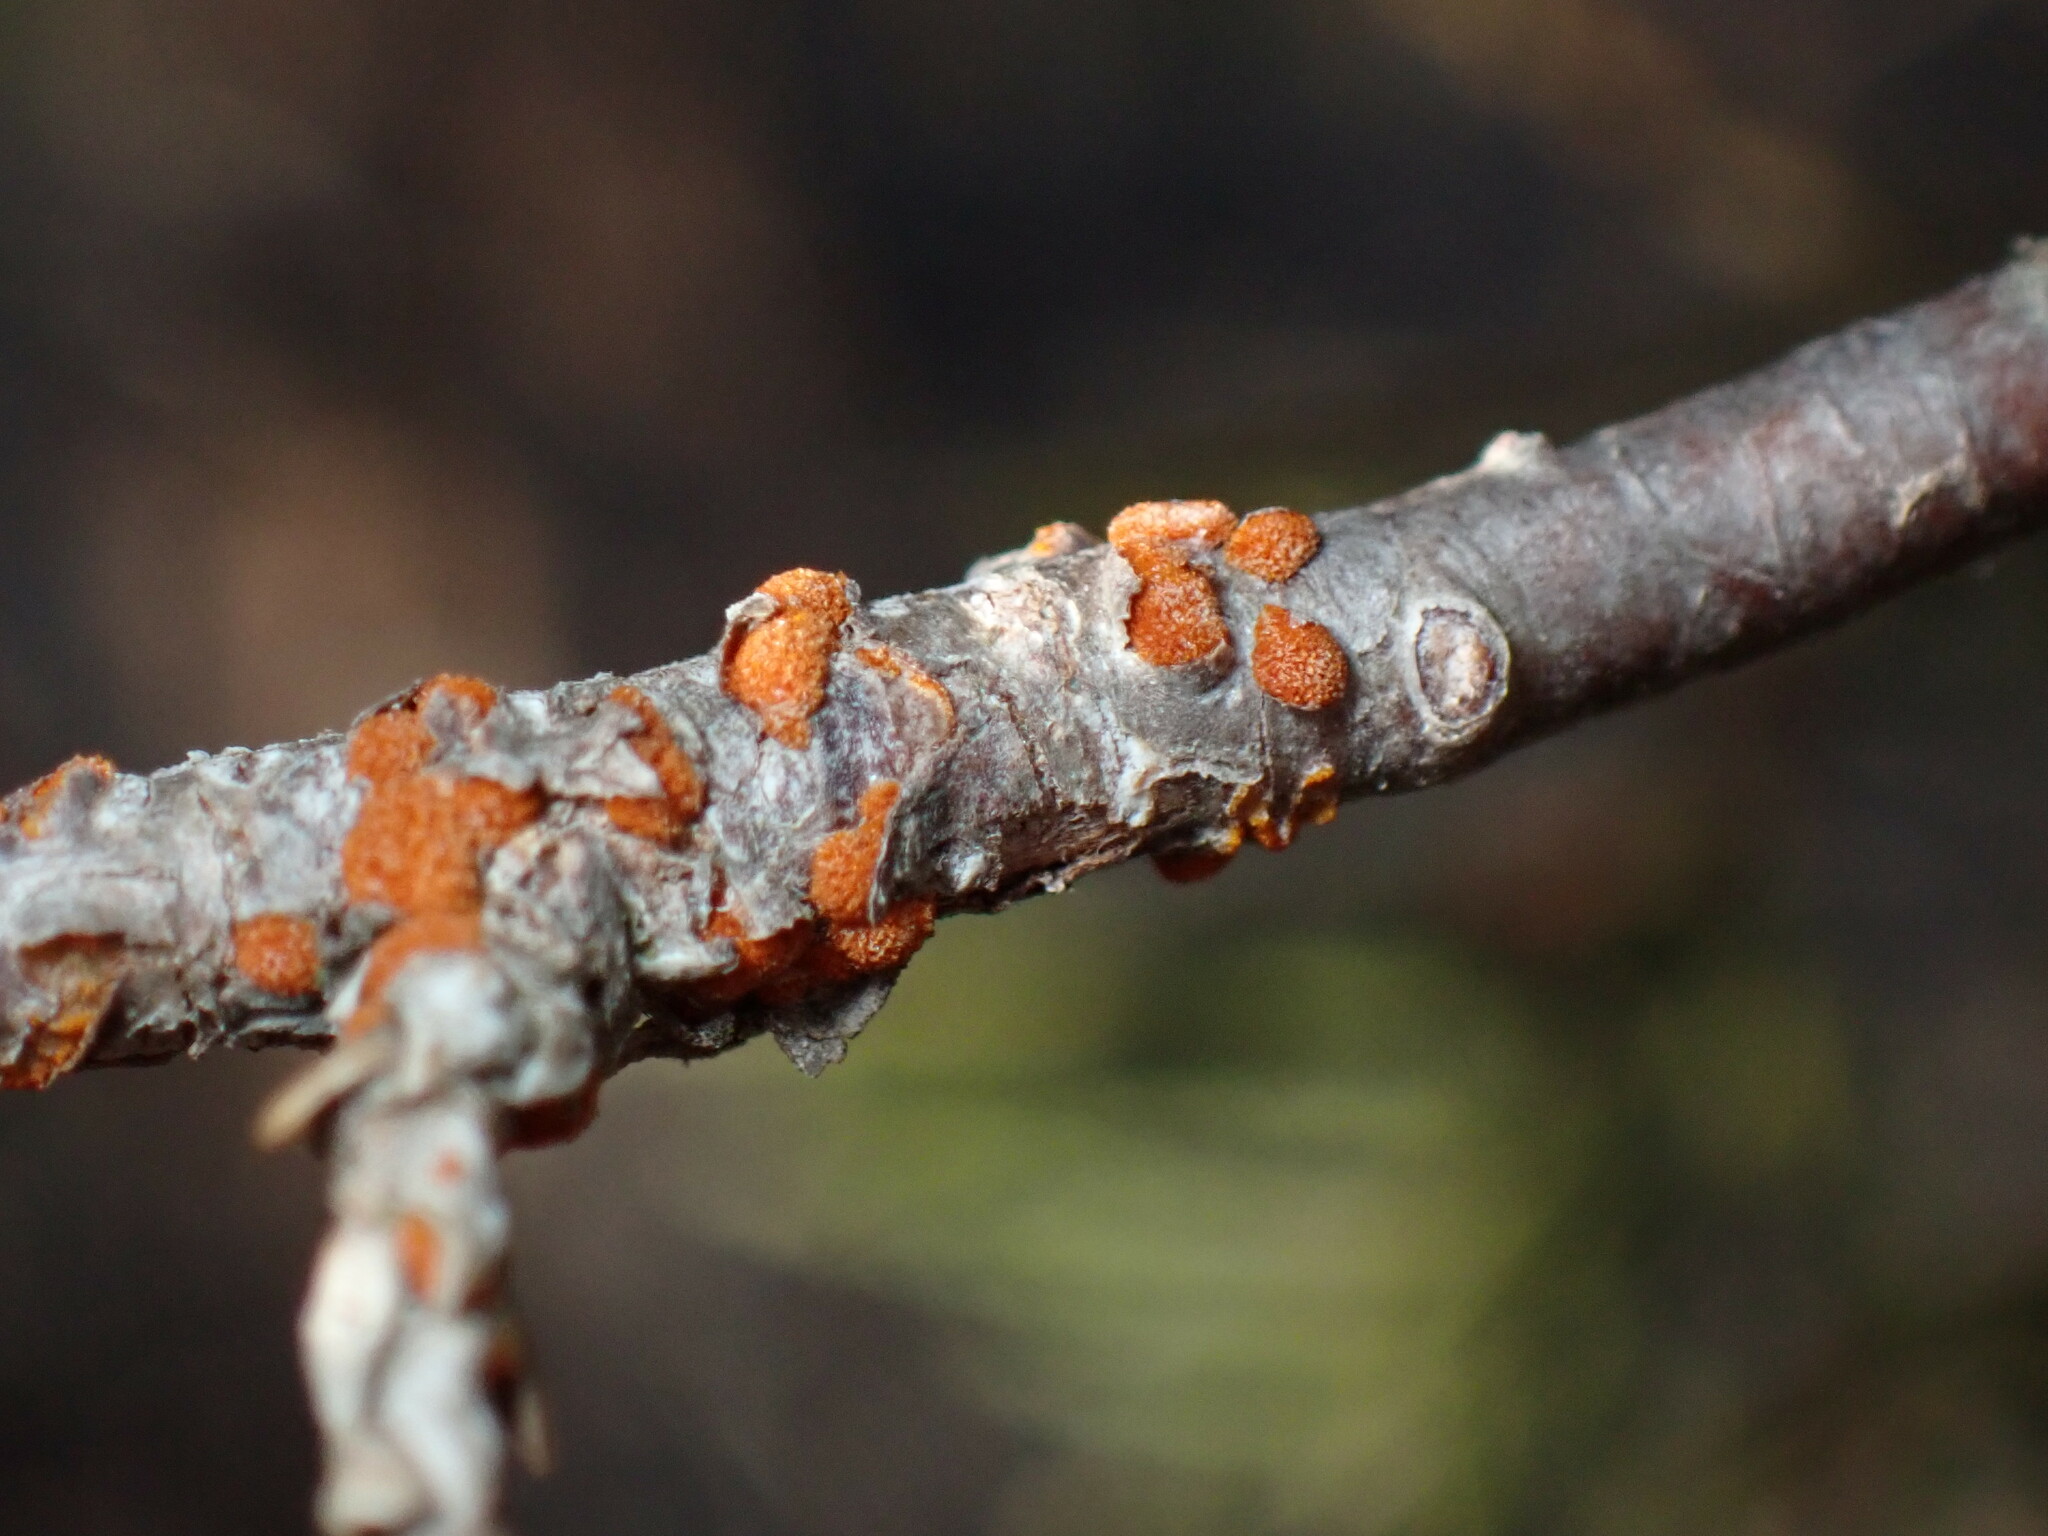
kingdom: Fungi
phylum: Basidiomycota
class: Pucciniomycetes
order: Pucciniales
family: Gymnosporangiaceae
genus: Gymnosporangium
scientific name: Gymnosporangium clavipes
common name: Quince rust
